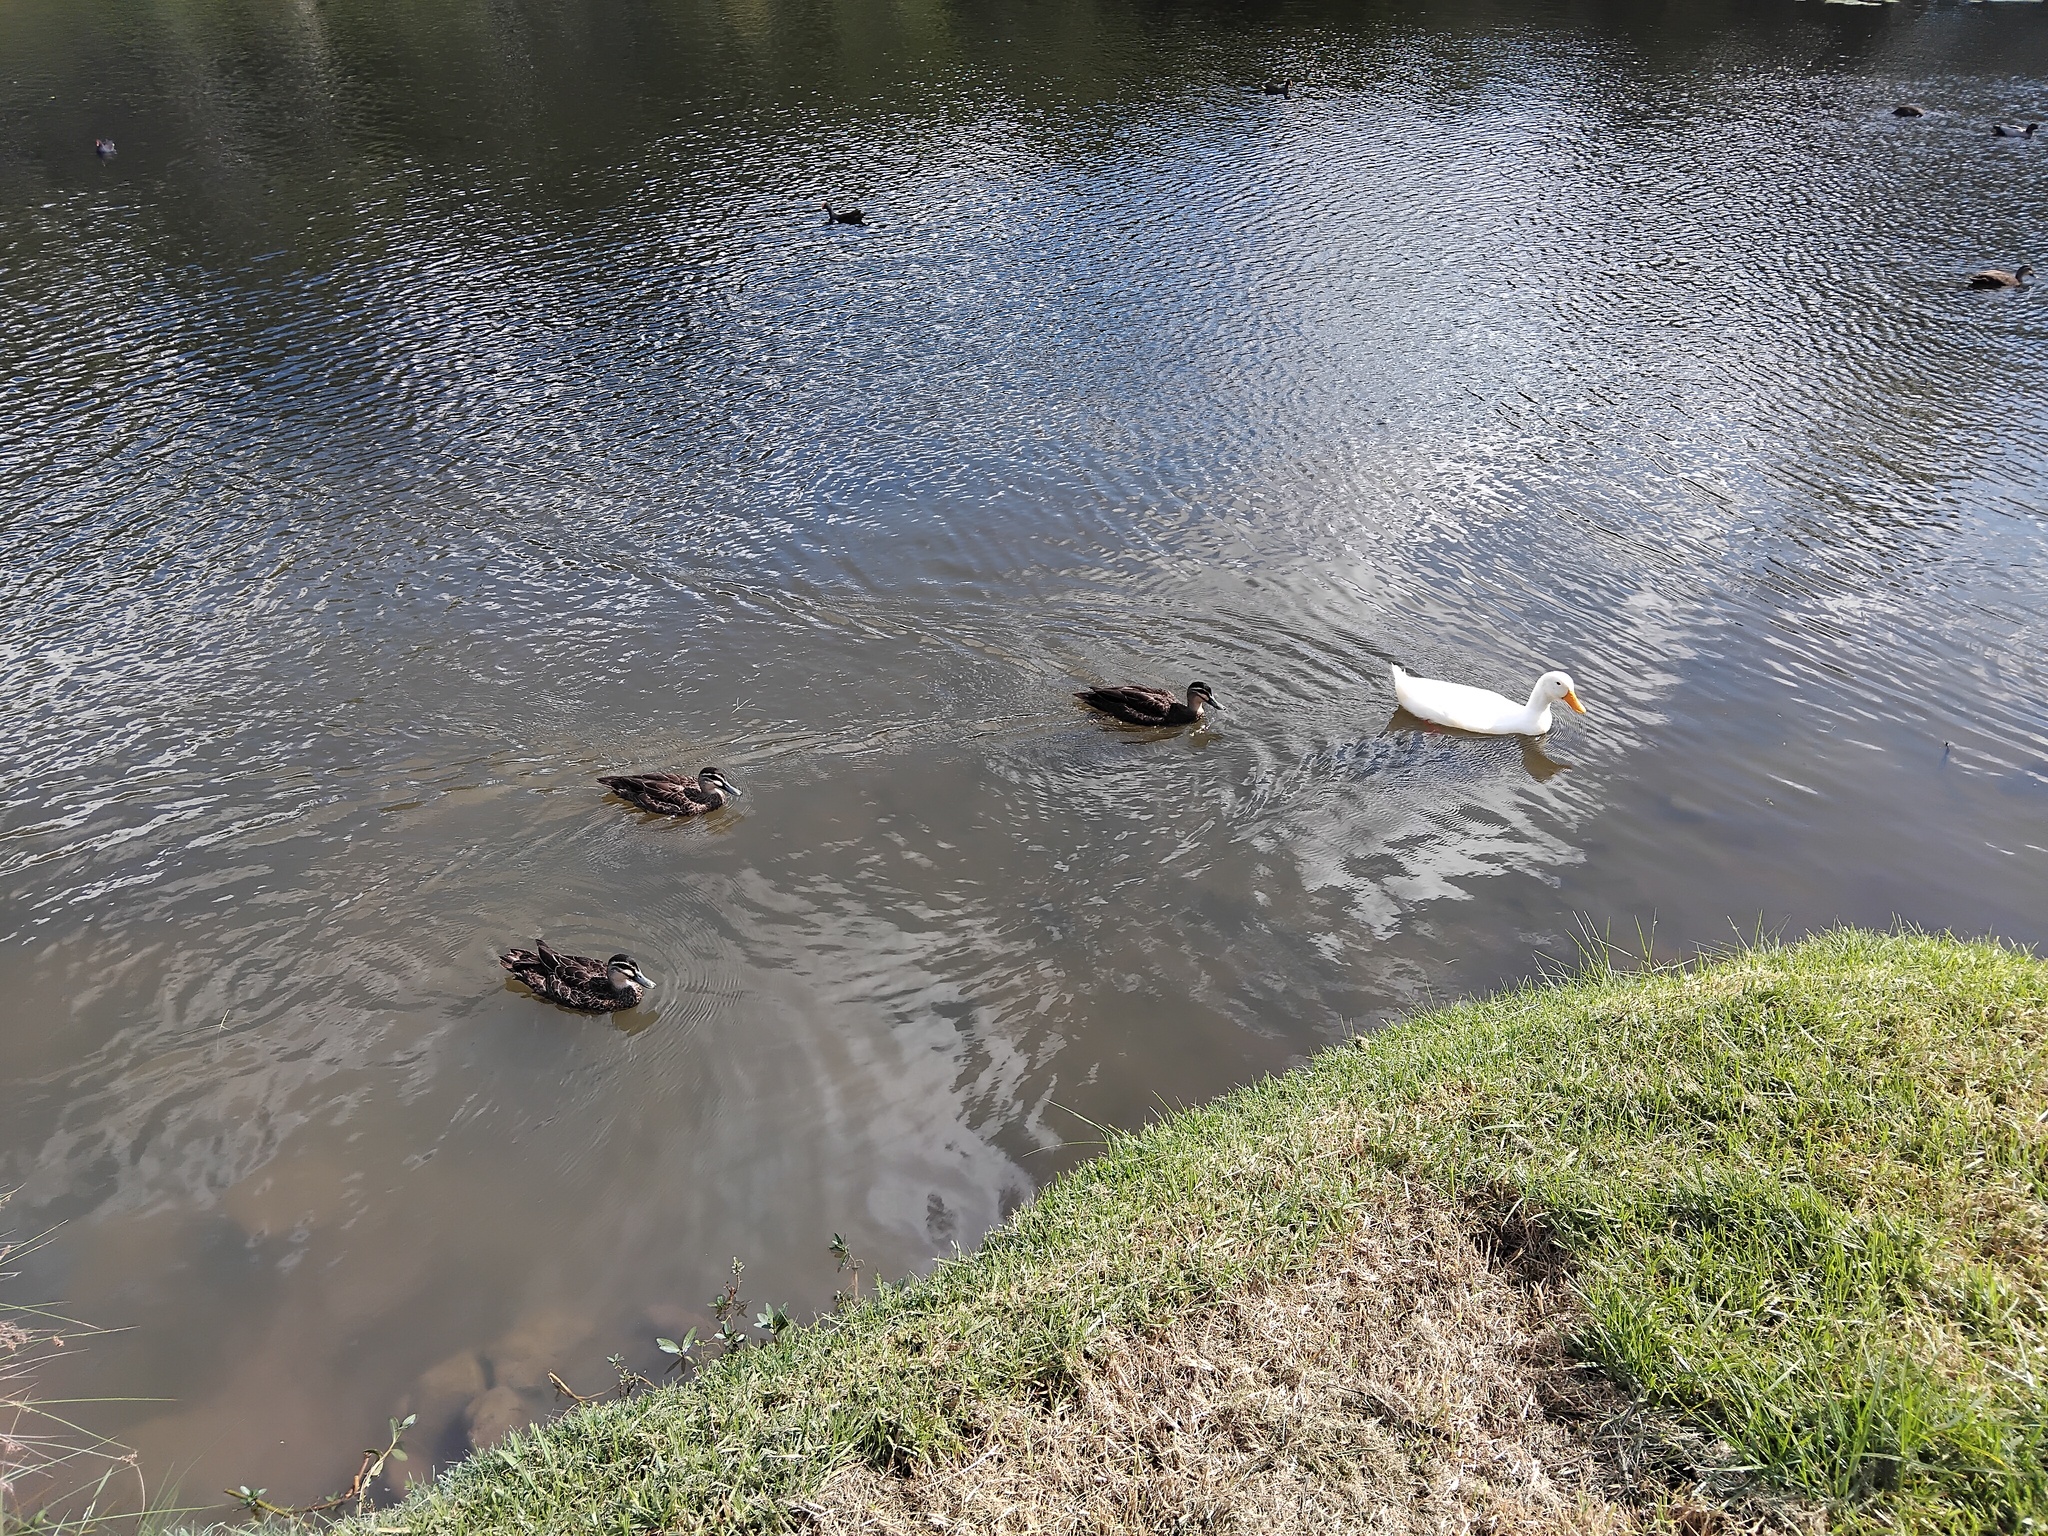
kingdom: Animalia
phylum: Chordata
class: Aves
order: Anseriformes
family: Anatidae
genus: Anas
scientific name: Anas superciliosa
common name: Pacific black duck
